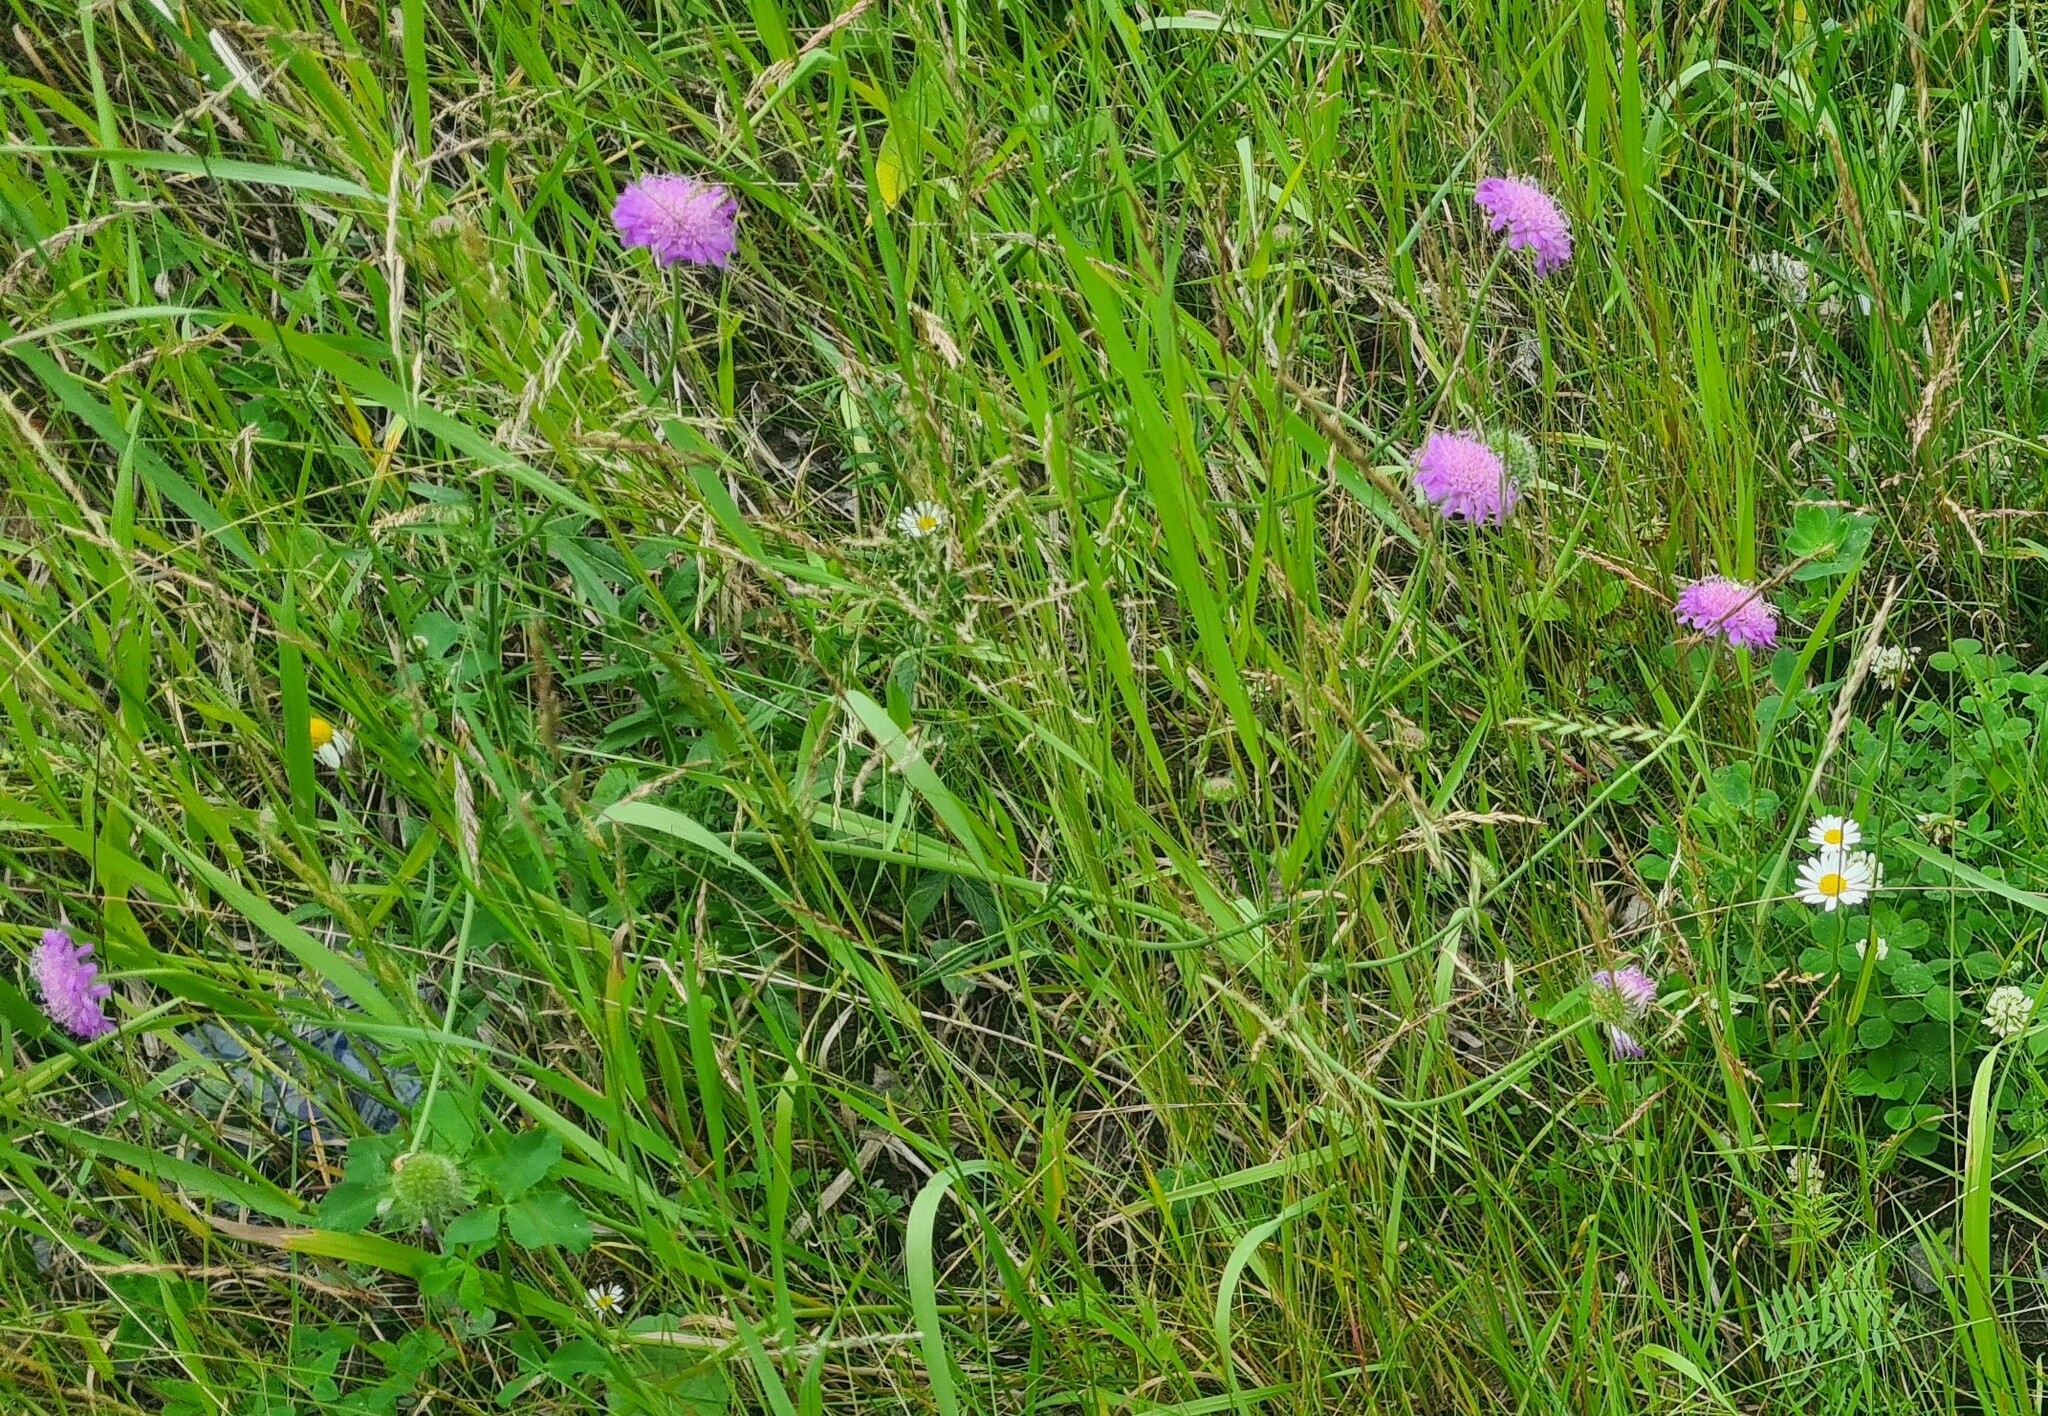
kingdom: Plantae
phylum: Tracheophyta
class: Magnoliopsida
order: Dipsacales
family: Caprifoliaceae
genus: Knautia
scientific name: Knautia arvensis
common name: Field scabiosa
